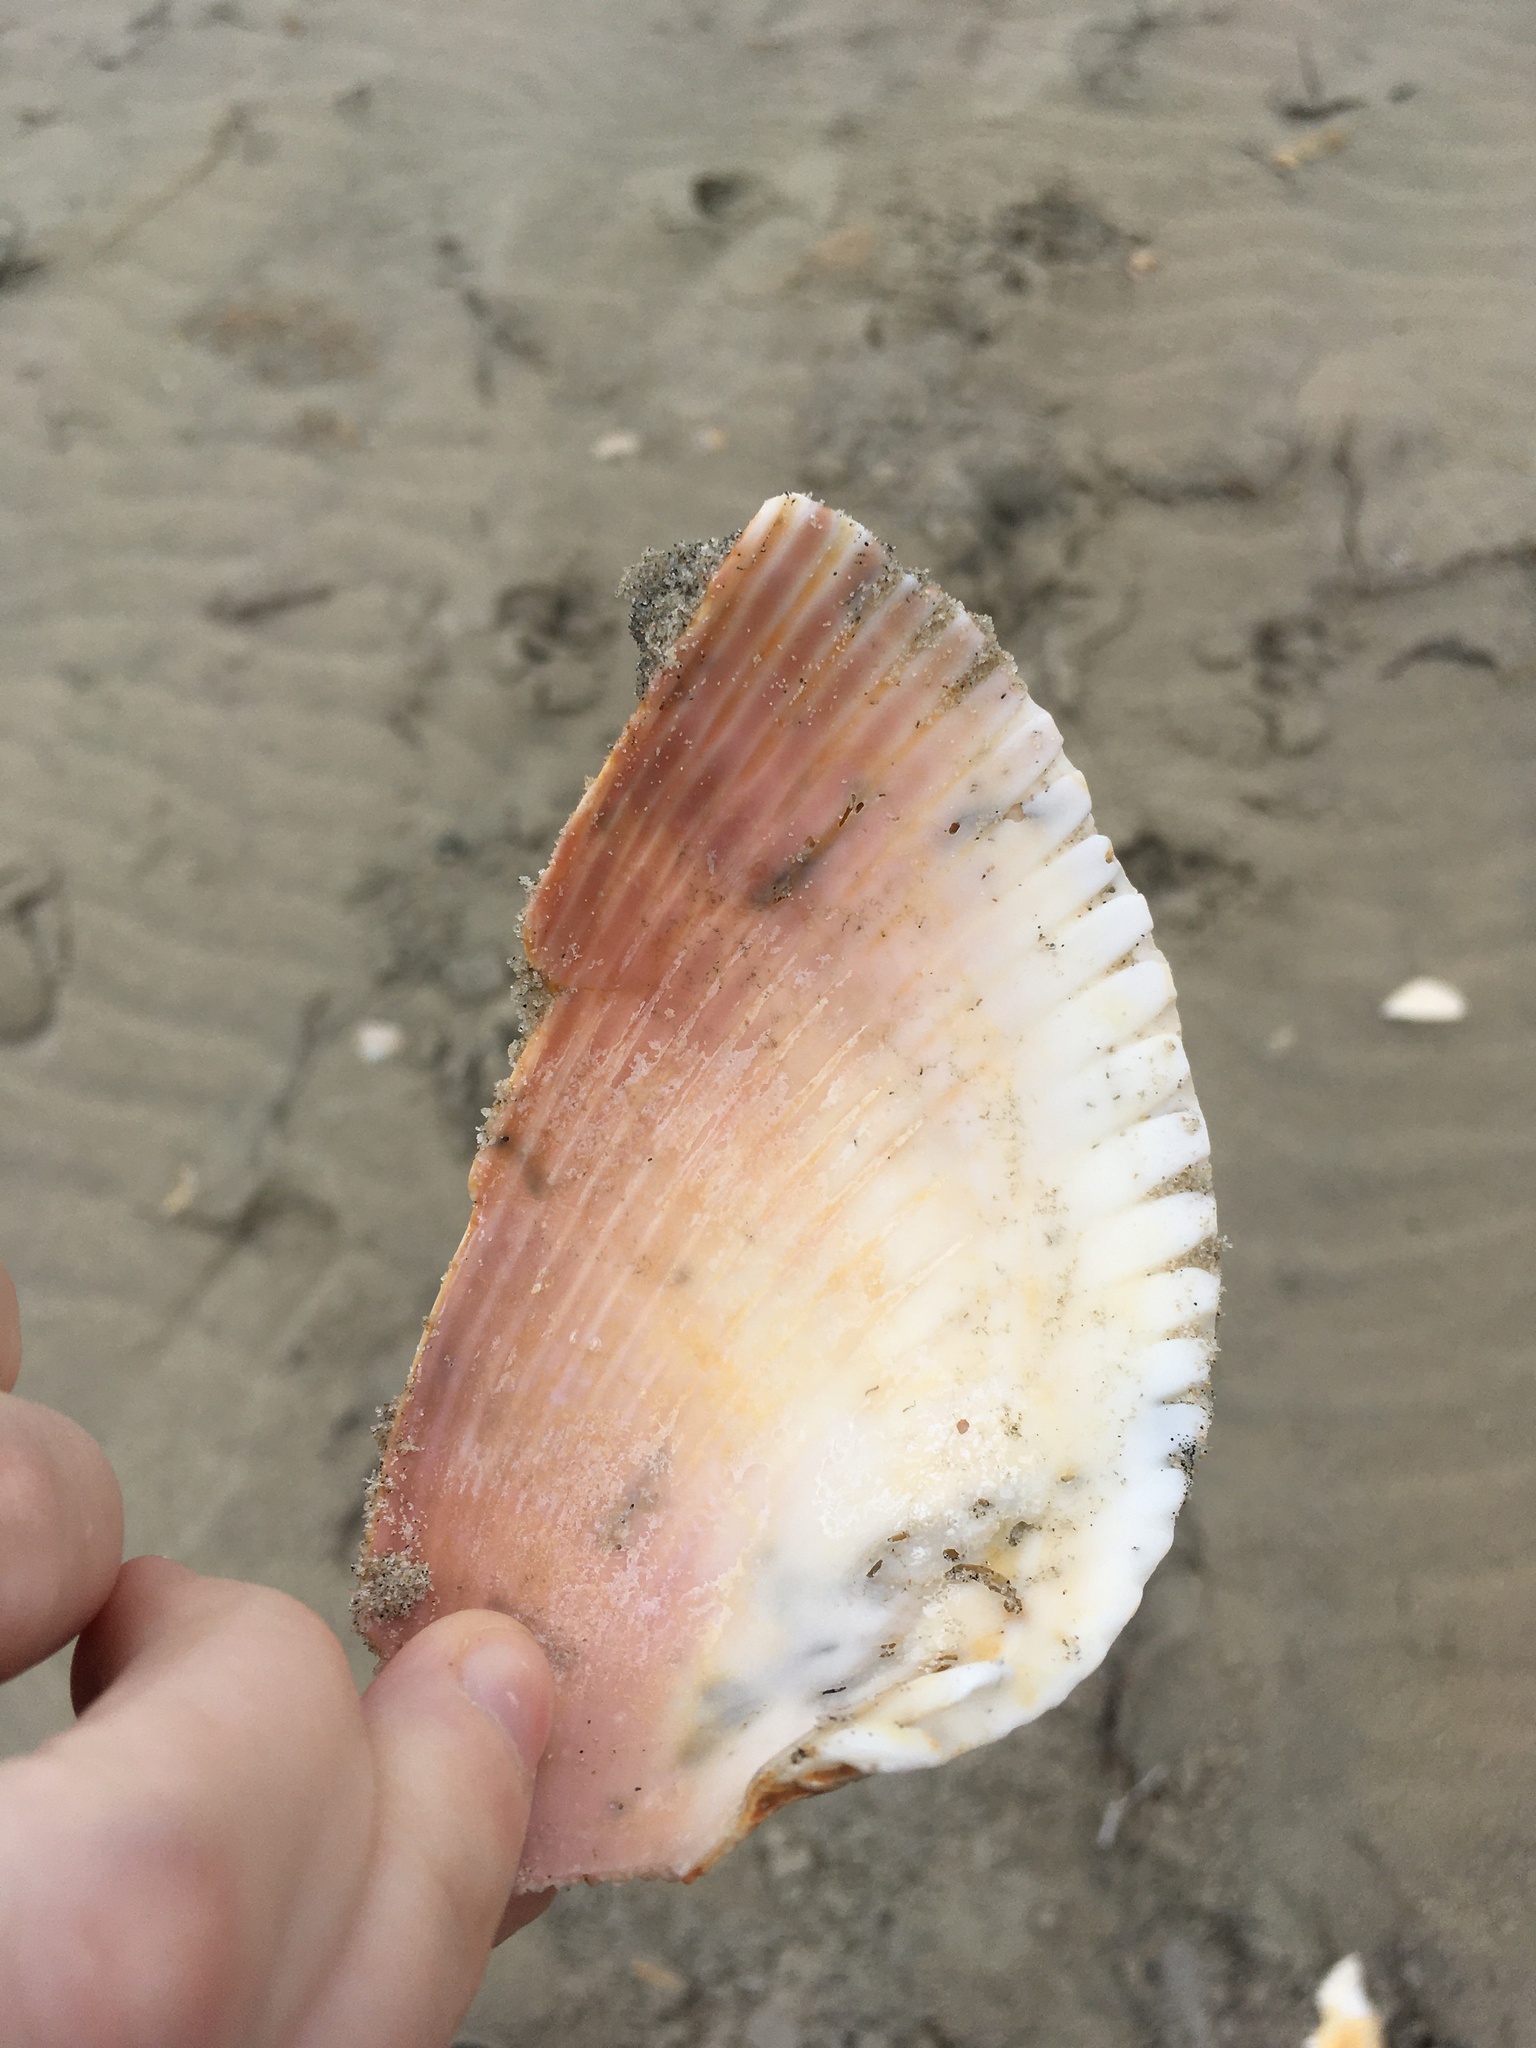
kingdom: Animalia
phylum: Mollusca
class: Bivalvia
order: Cardiida
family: Cardiidae
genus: Dinocardium
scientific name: Dinocardium robustum
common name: Atlantic giant cockle
